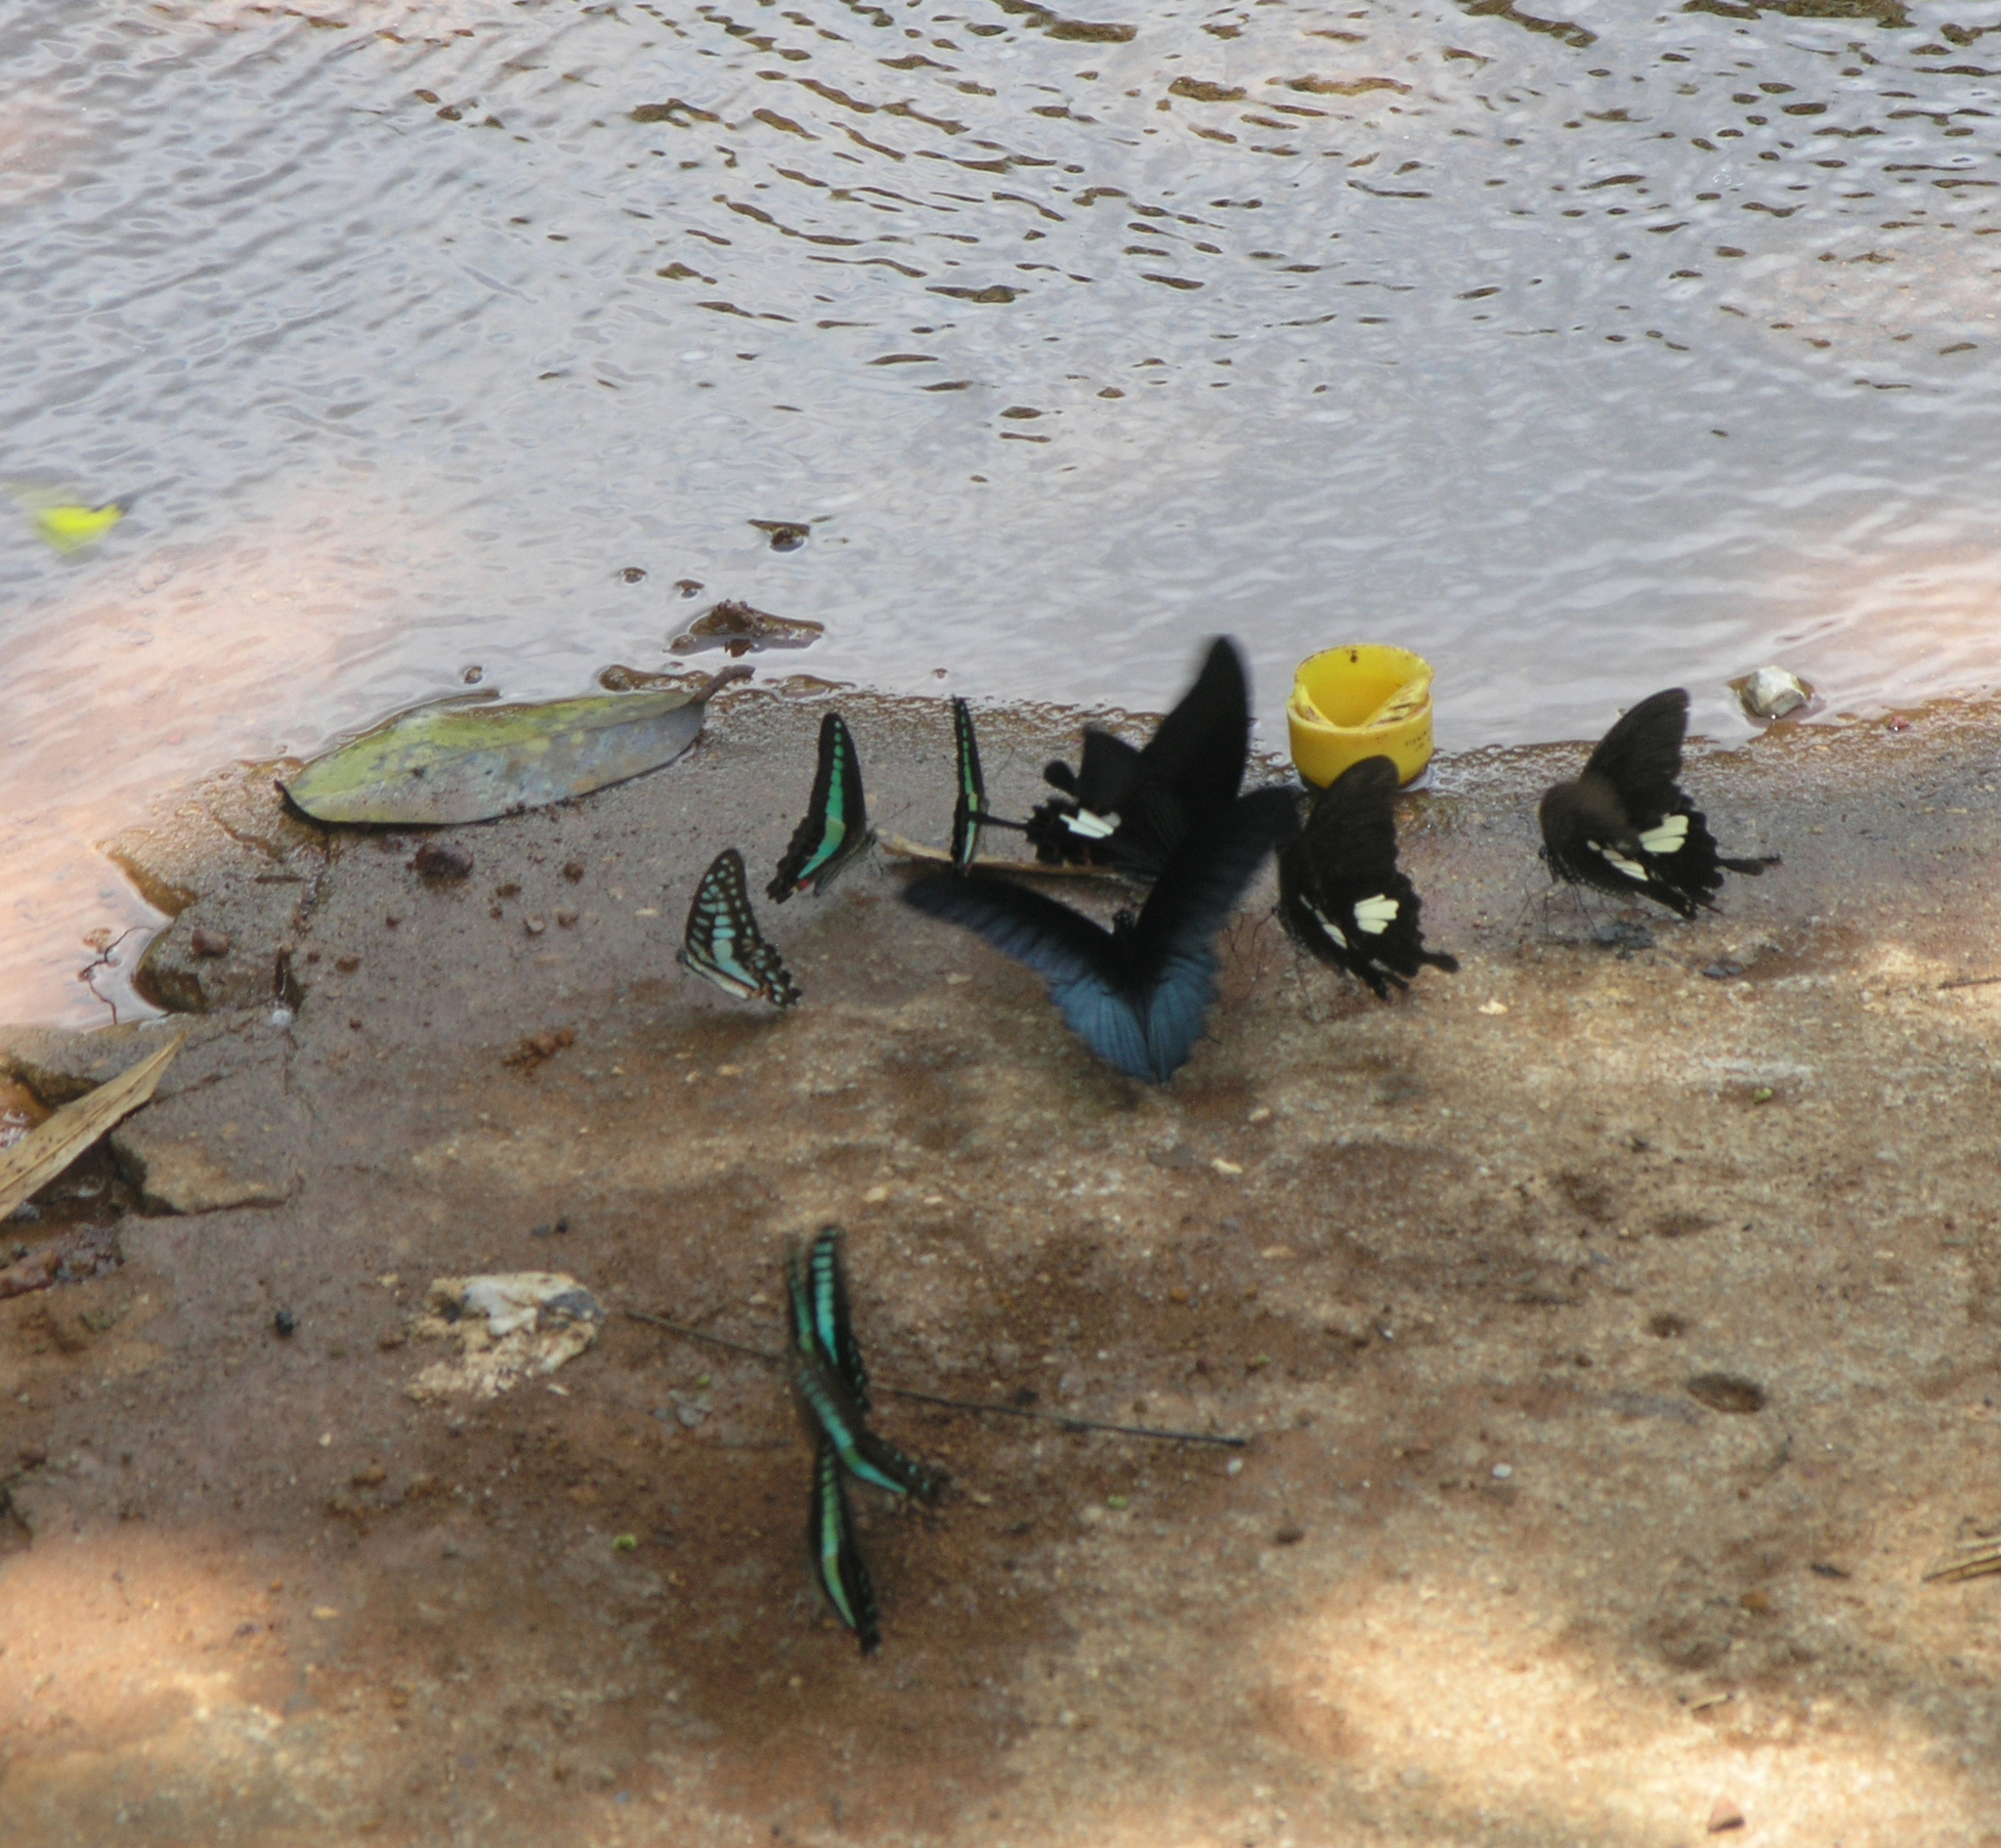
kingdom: Animalia
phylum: Arthropoda
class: Insecta
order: Lepidoptera
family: Papilionidae
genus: Papilio
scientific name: Papilio memnon
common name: Great mormon
